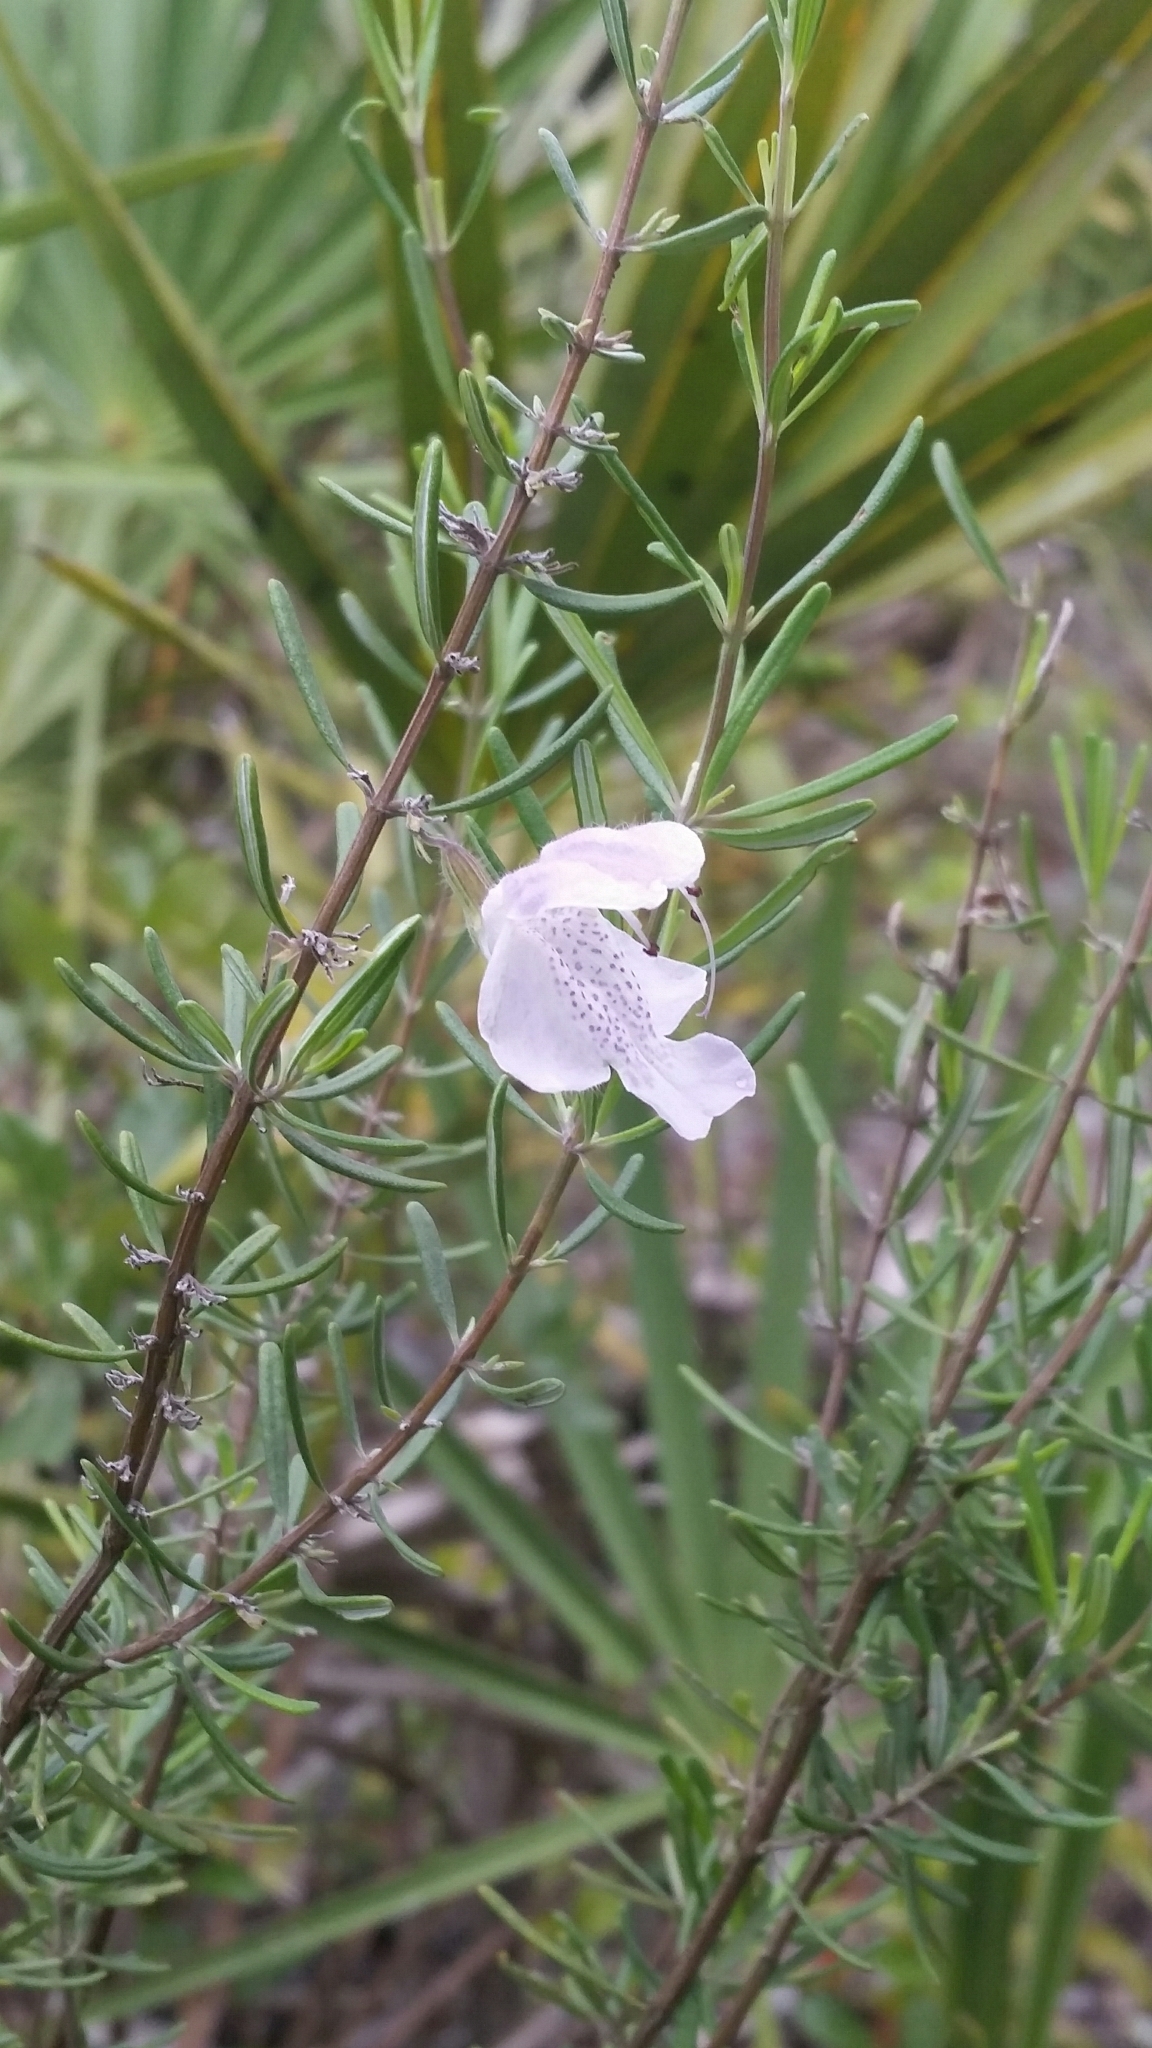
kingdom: Plantae
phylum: Tracheophyta
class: Magnoliopsida
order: Lamiales
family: Lamiaceae
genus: Conradina
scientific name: Conradina grandiflora
